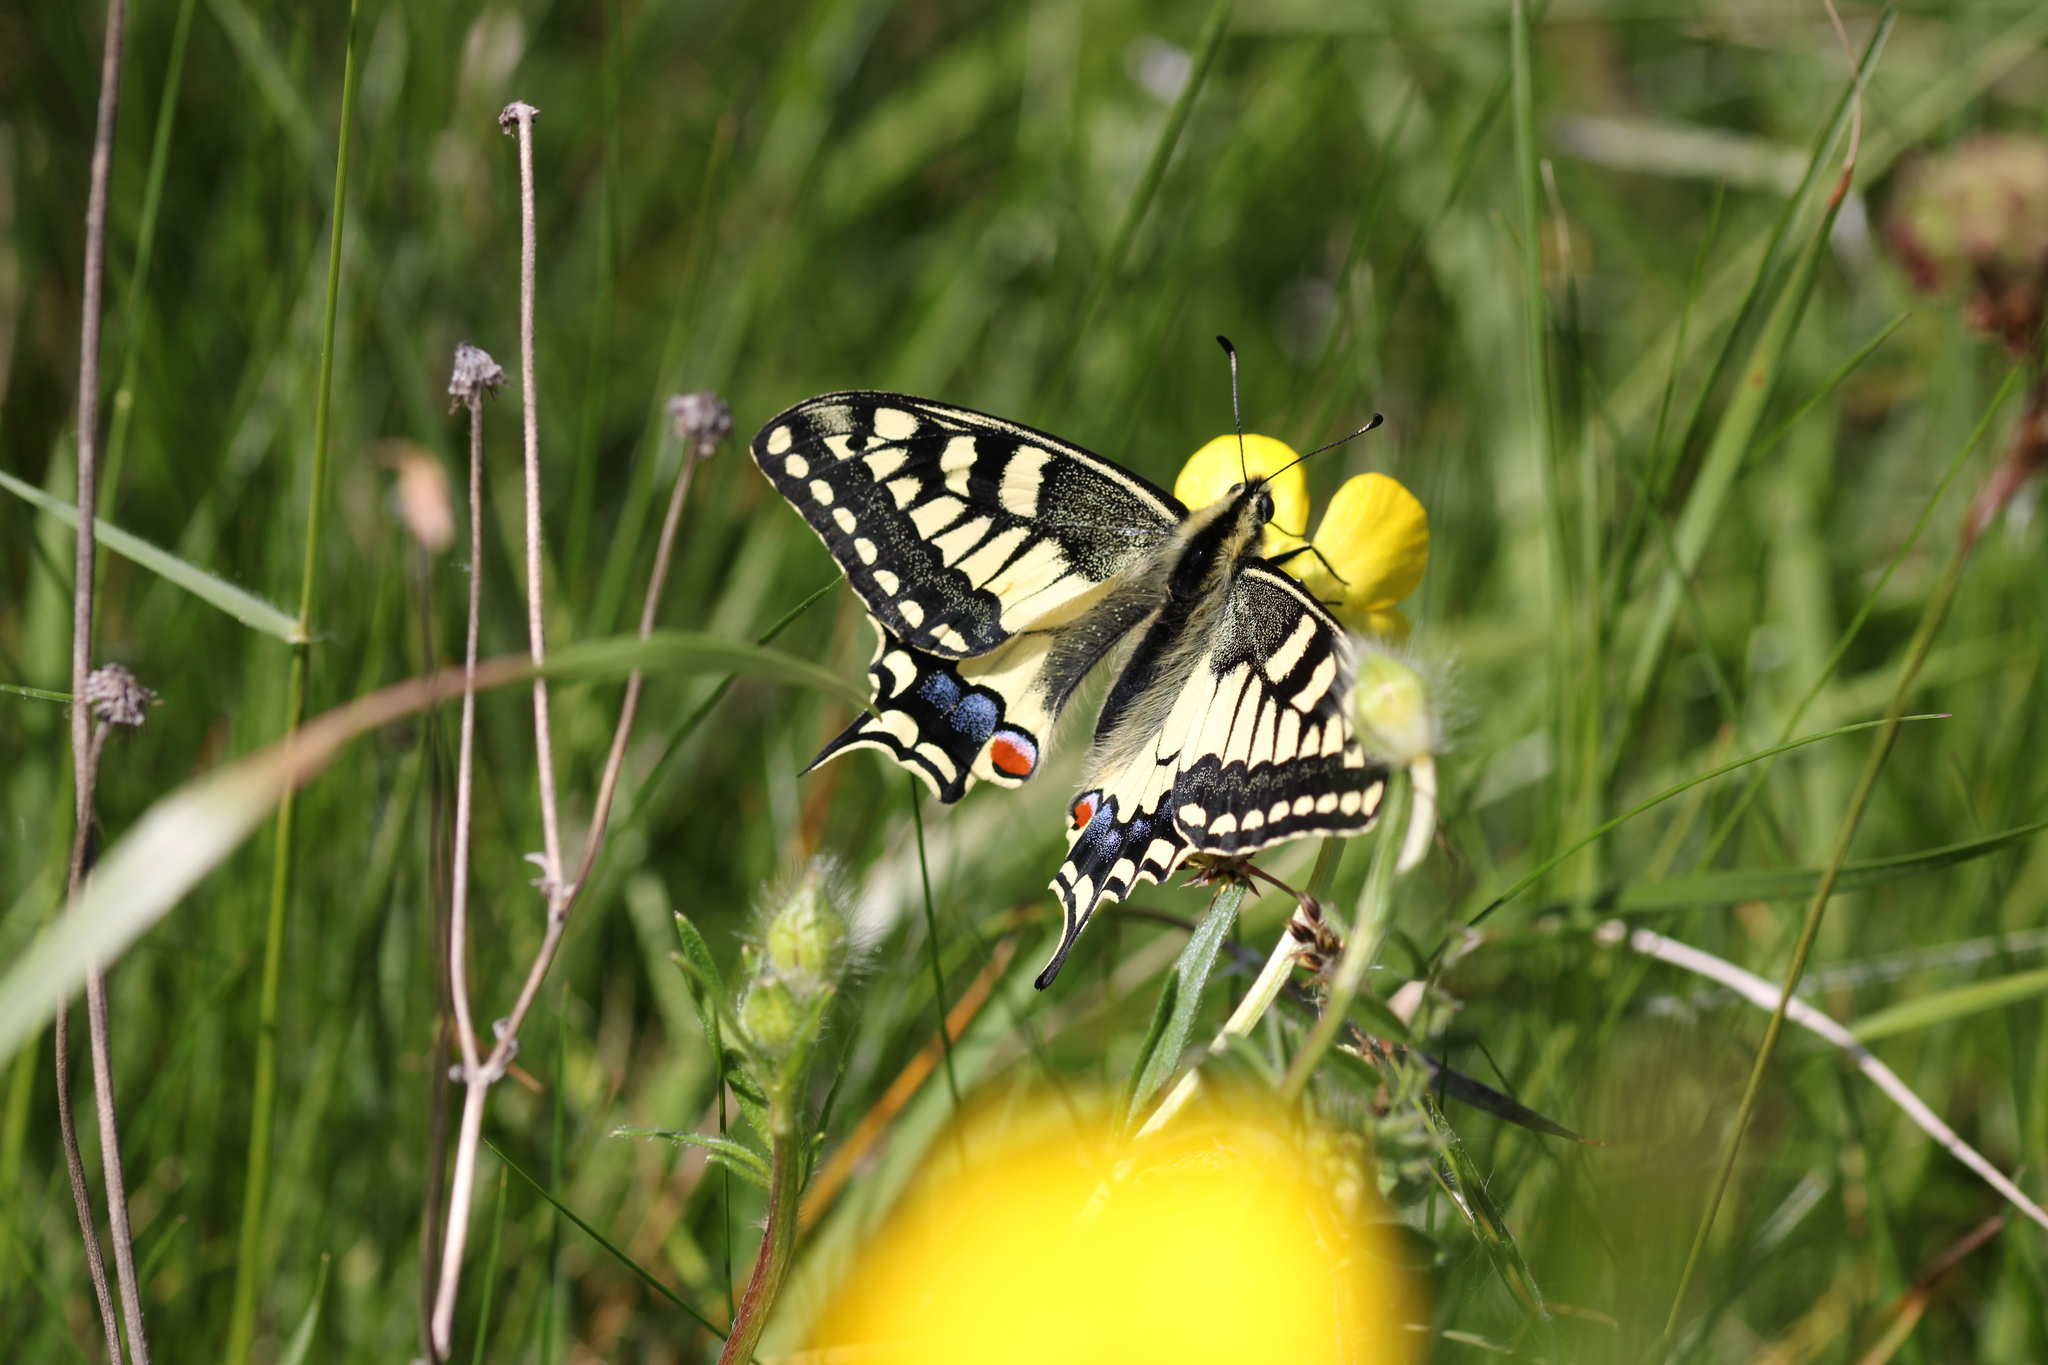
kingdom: Animalia
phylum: Arthropoda
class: Insecta
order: Lepidoptera
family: Papilionidae
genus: Papilio
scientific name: Papilio machaon
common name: Swallowtail
